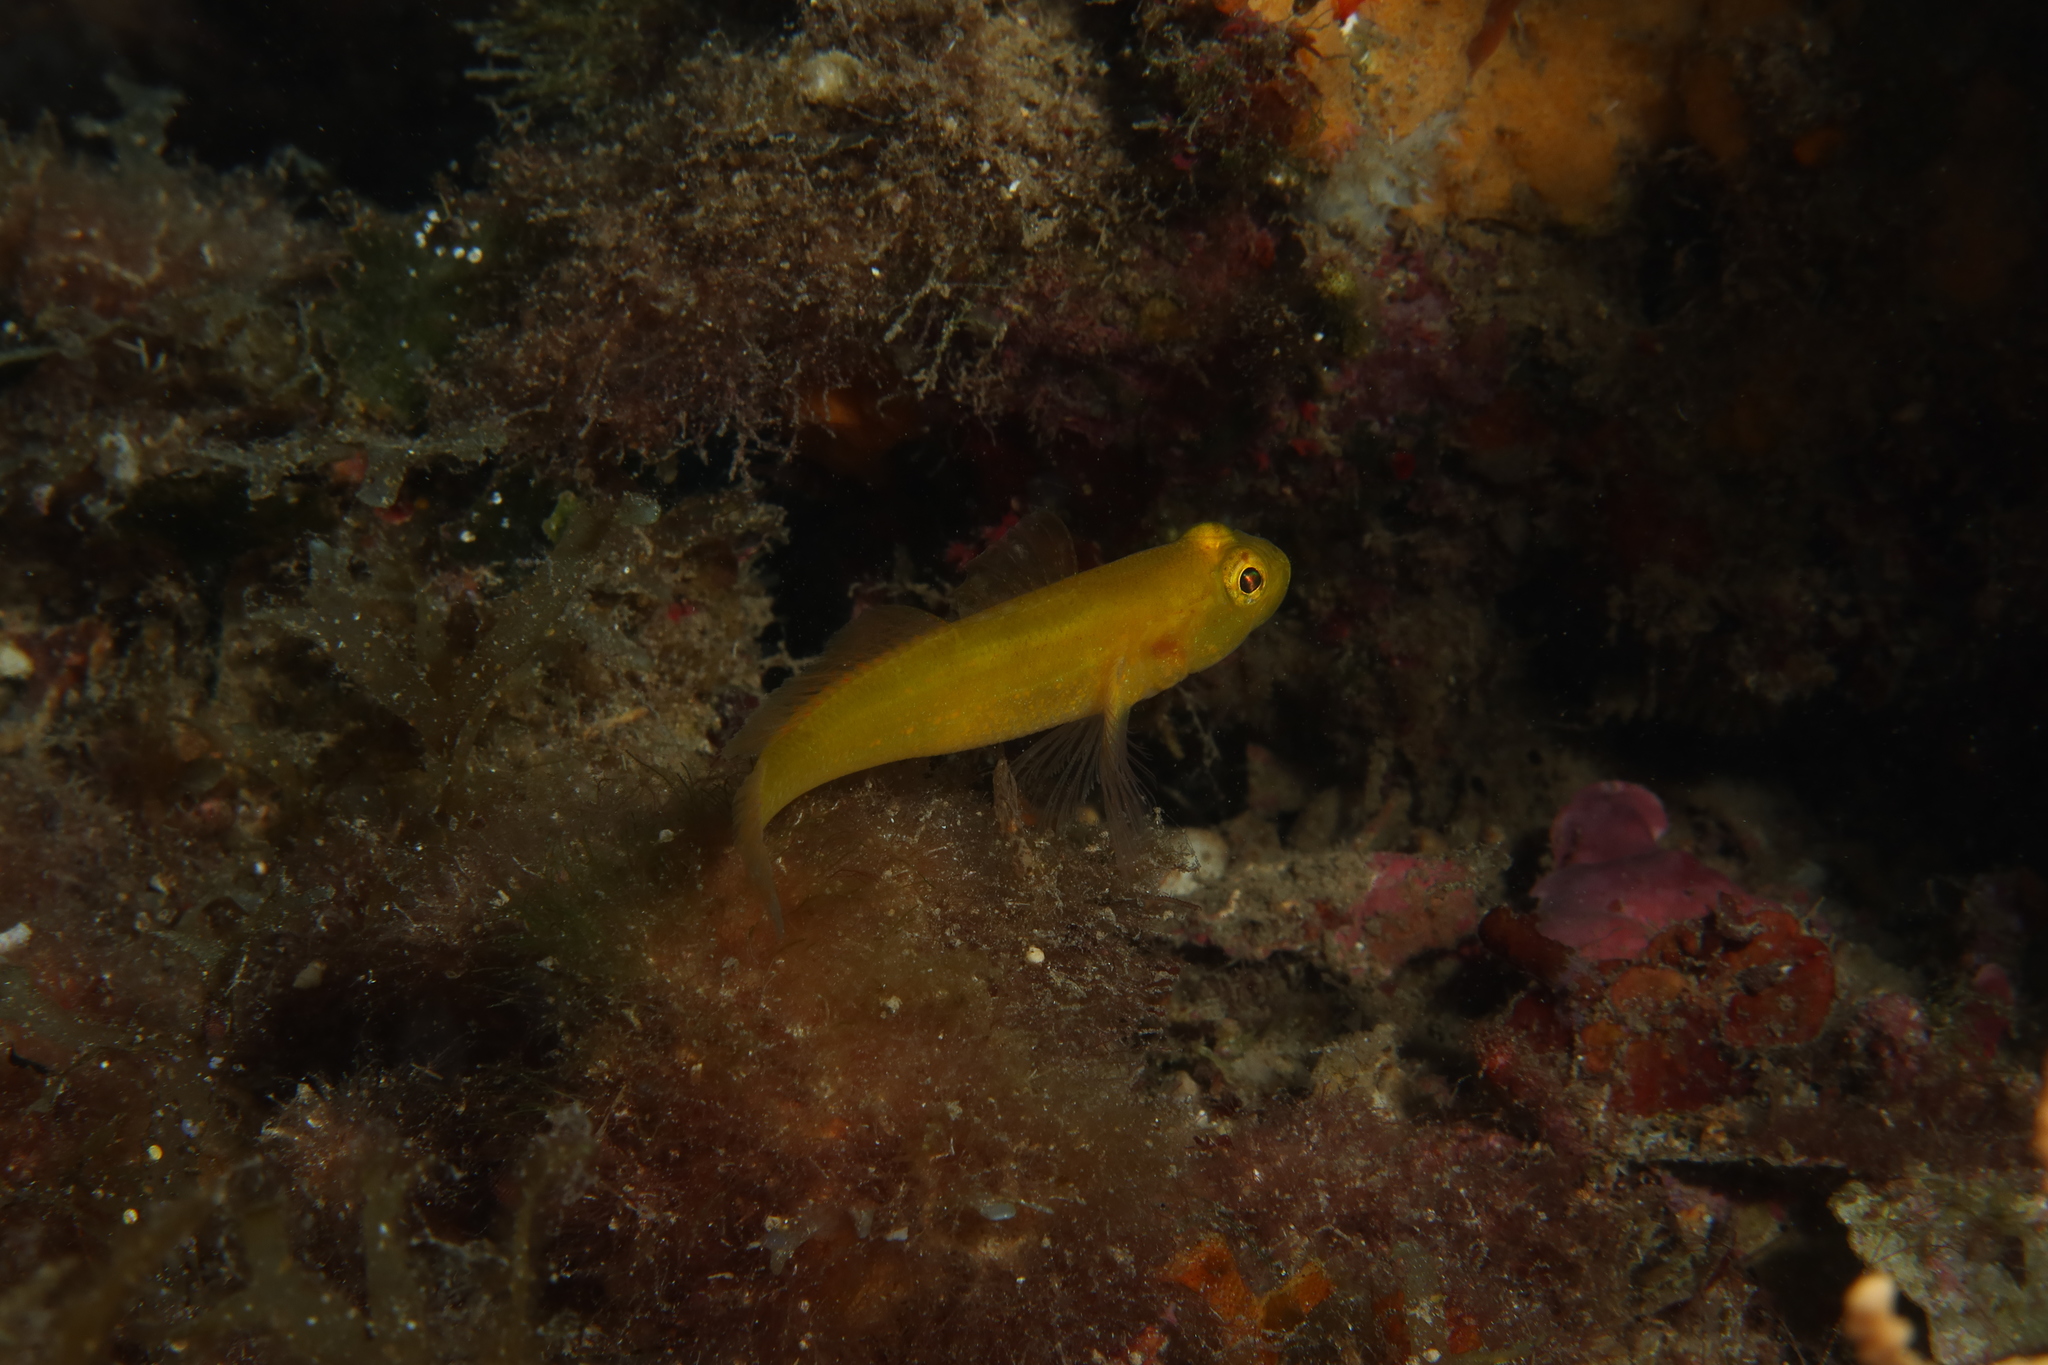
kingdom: Animalia
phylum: Chordata
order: Perciformes
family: Gobiidae
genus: Gobius
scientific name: Gobius auratus
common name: Golden goby
